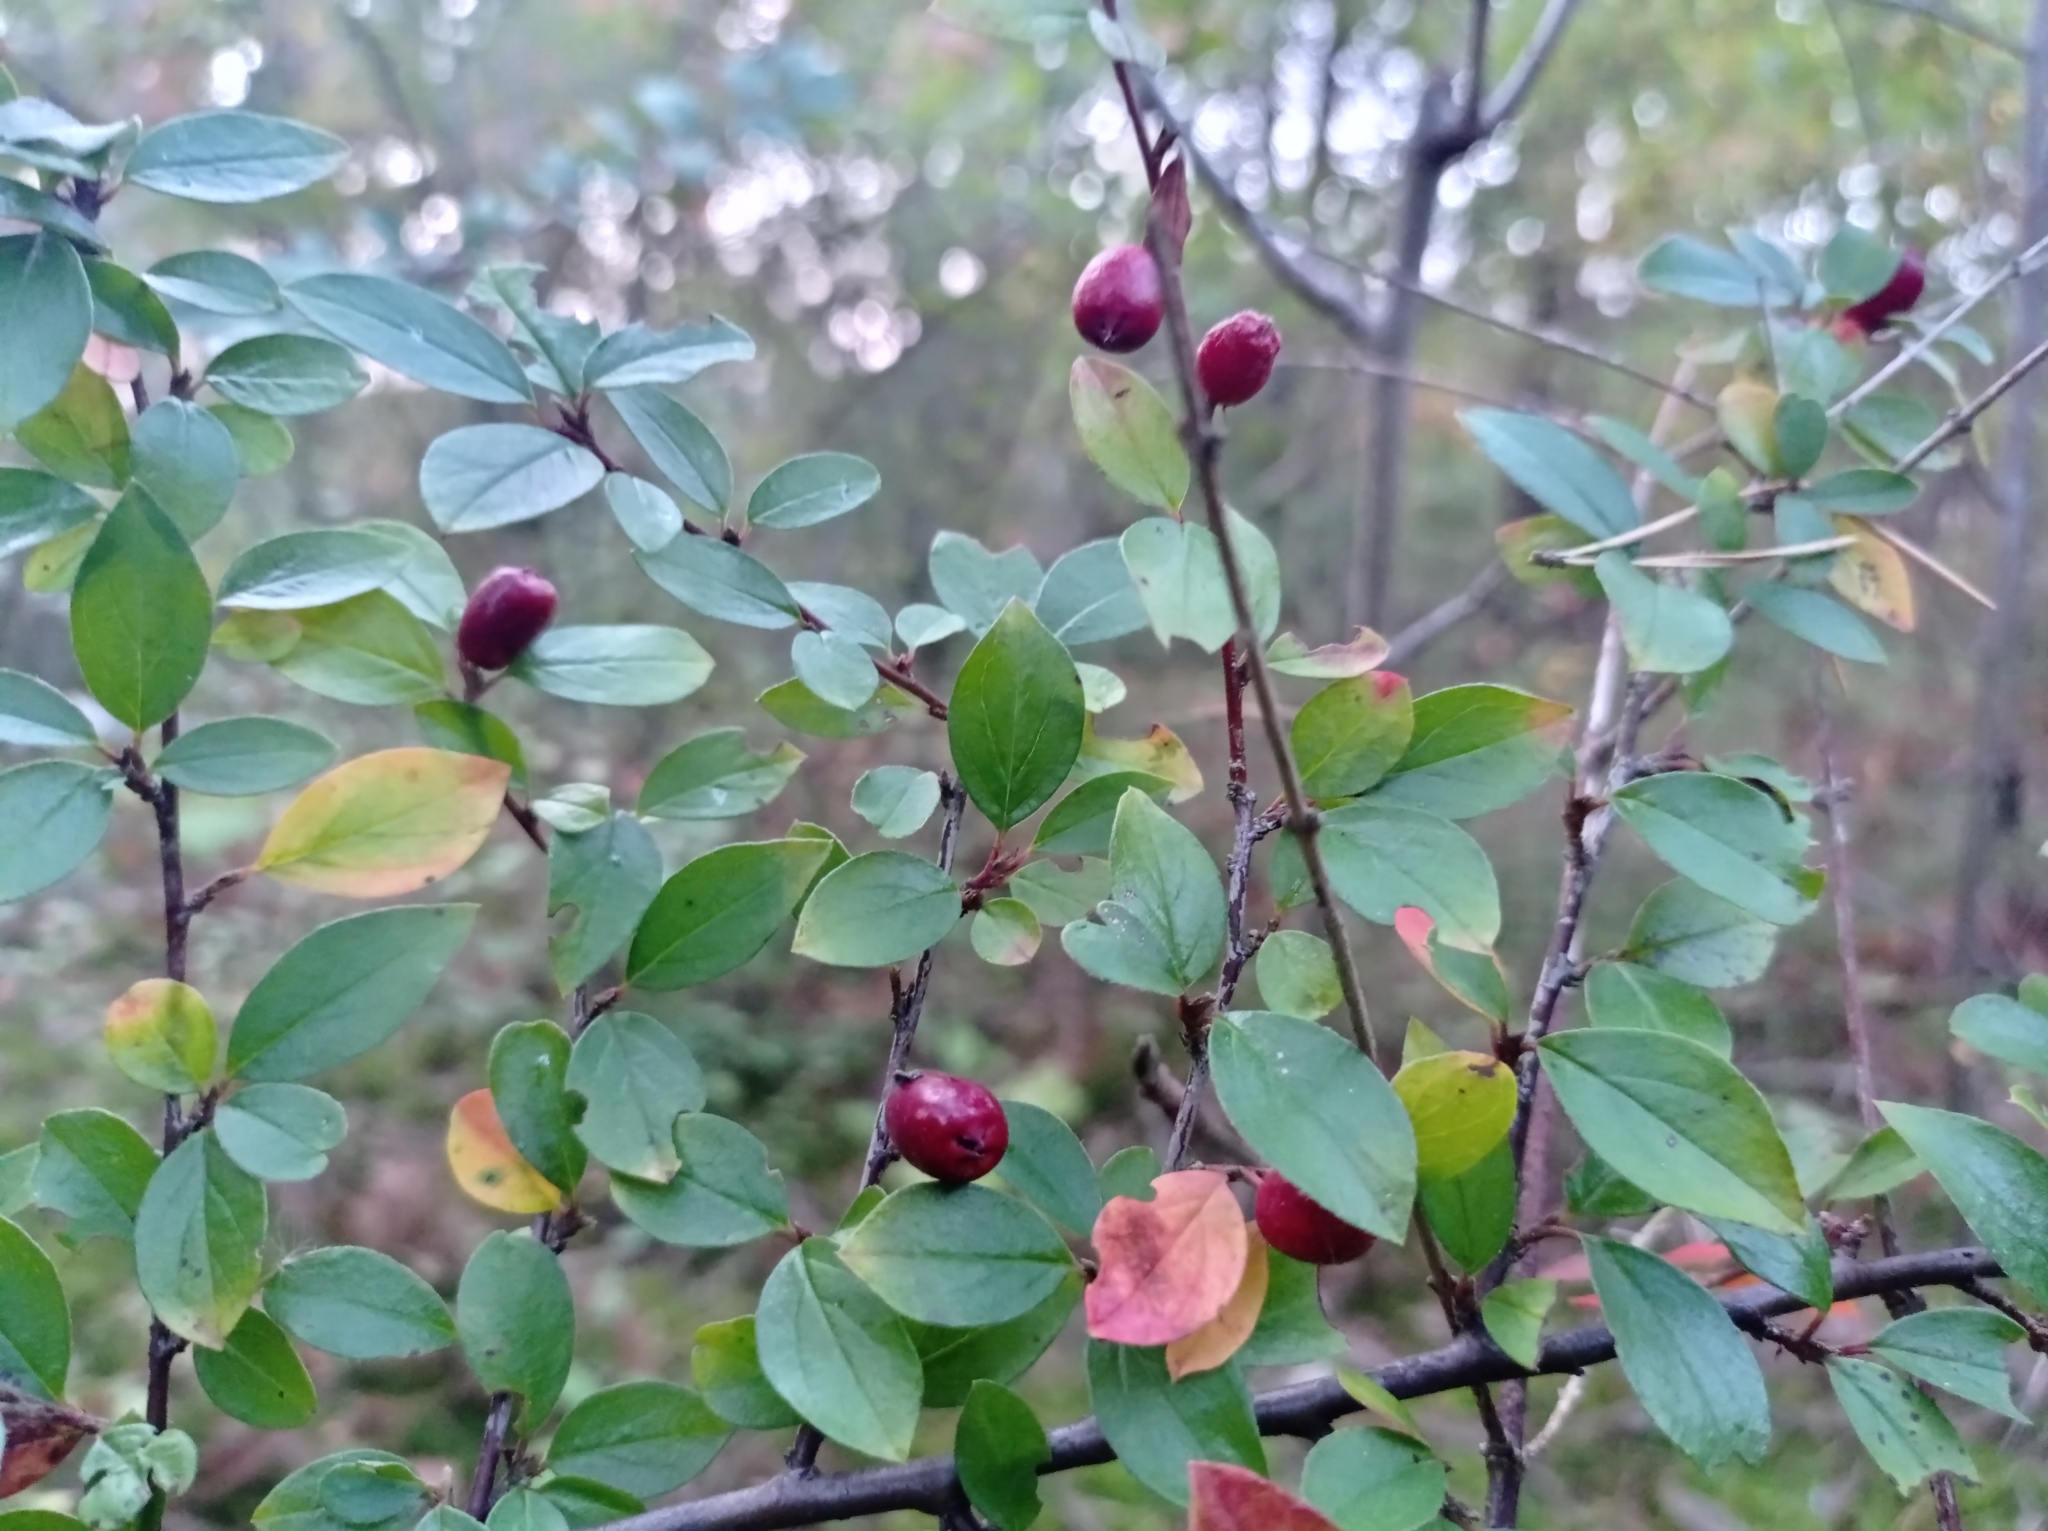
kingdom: Plantae
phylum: Tracheophyta
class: Magnoliopsida
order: Rosales
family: Rosaceae
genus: Cotoneaster
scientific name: Cotoneaster divaricatus
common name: Spreading cotoneaster
